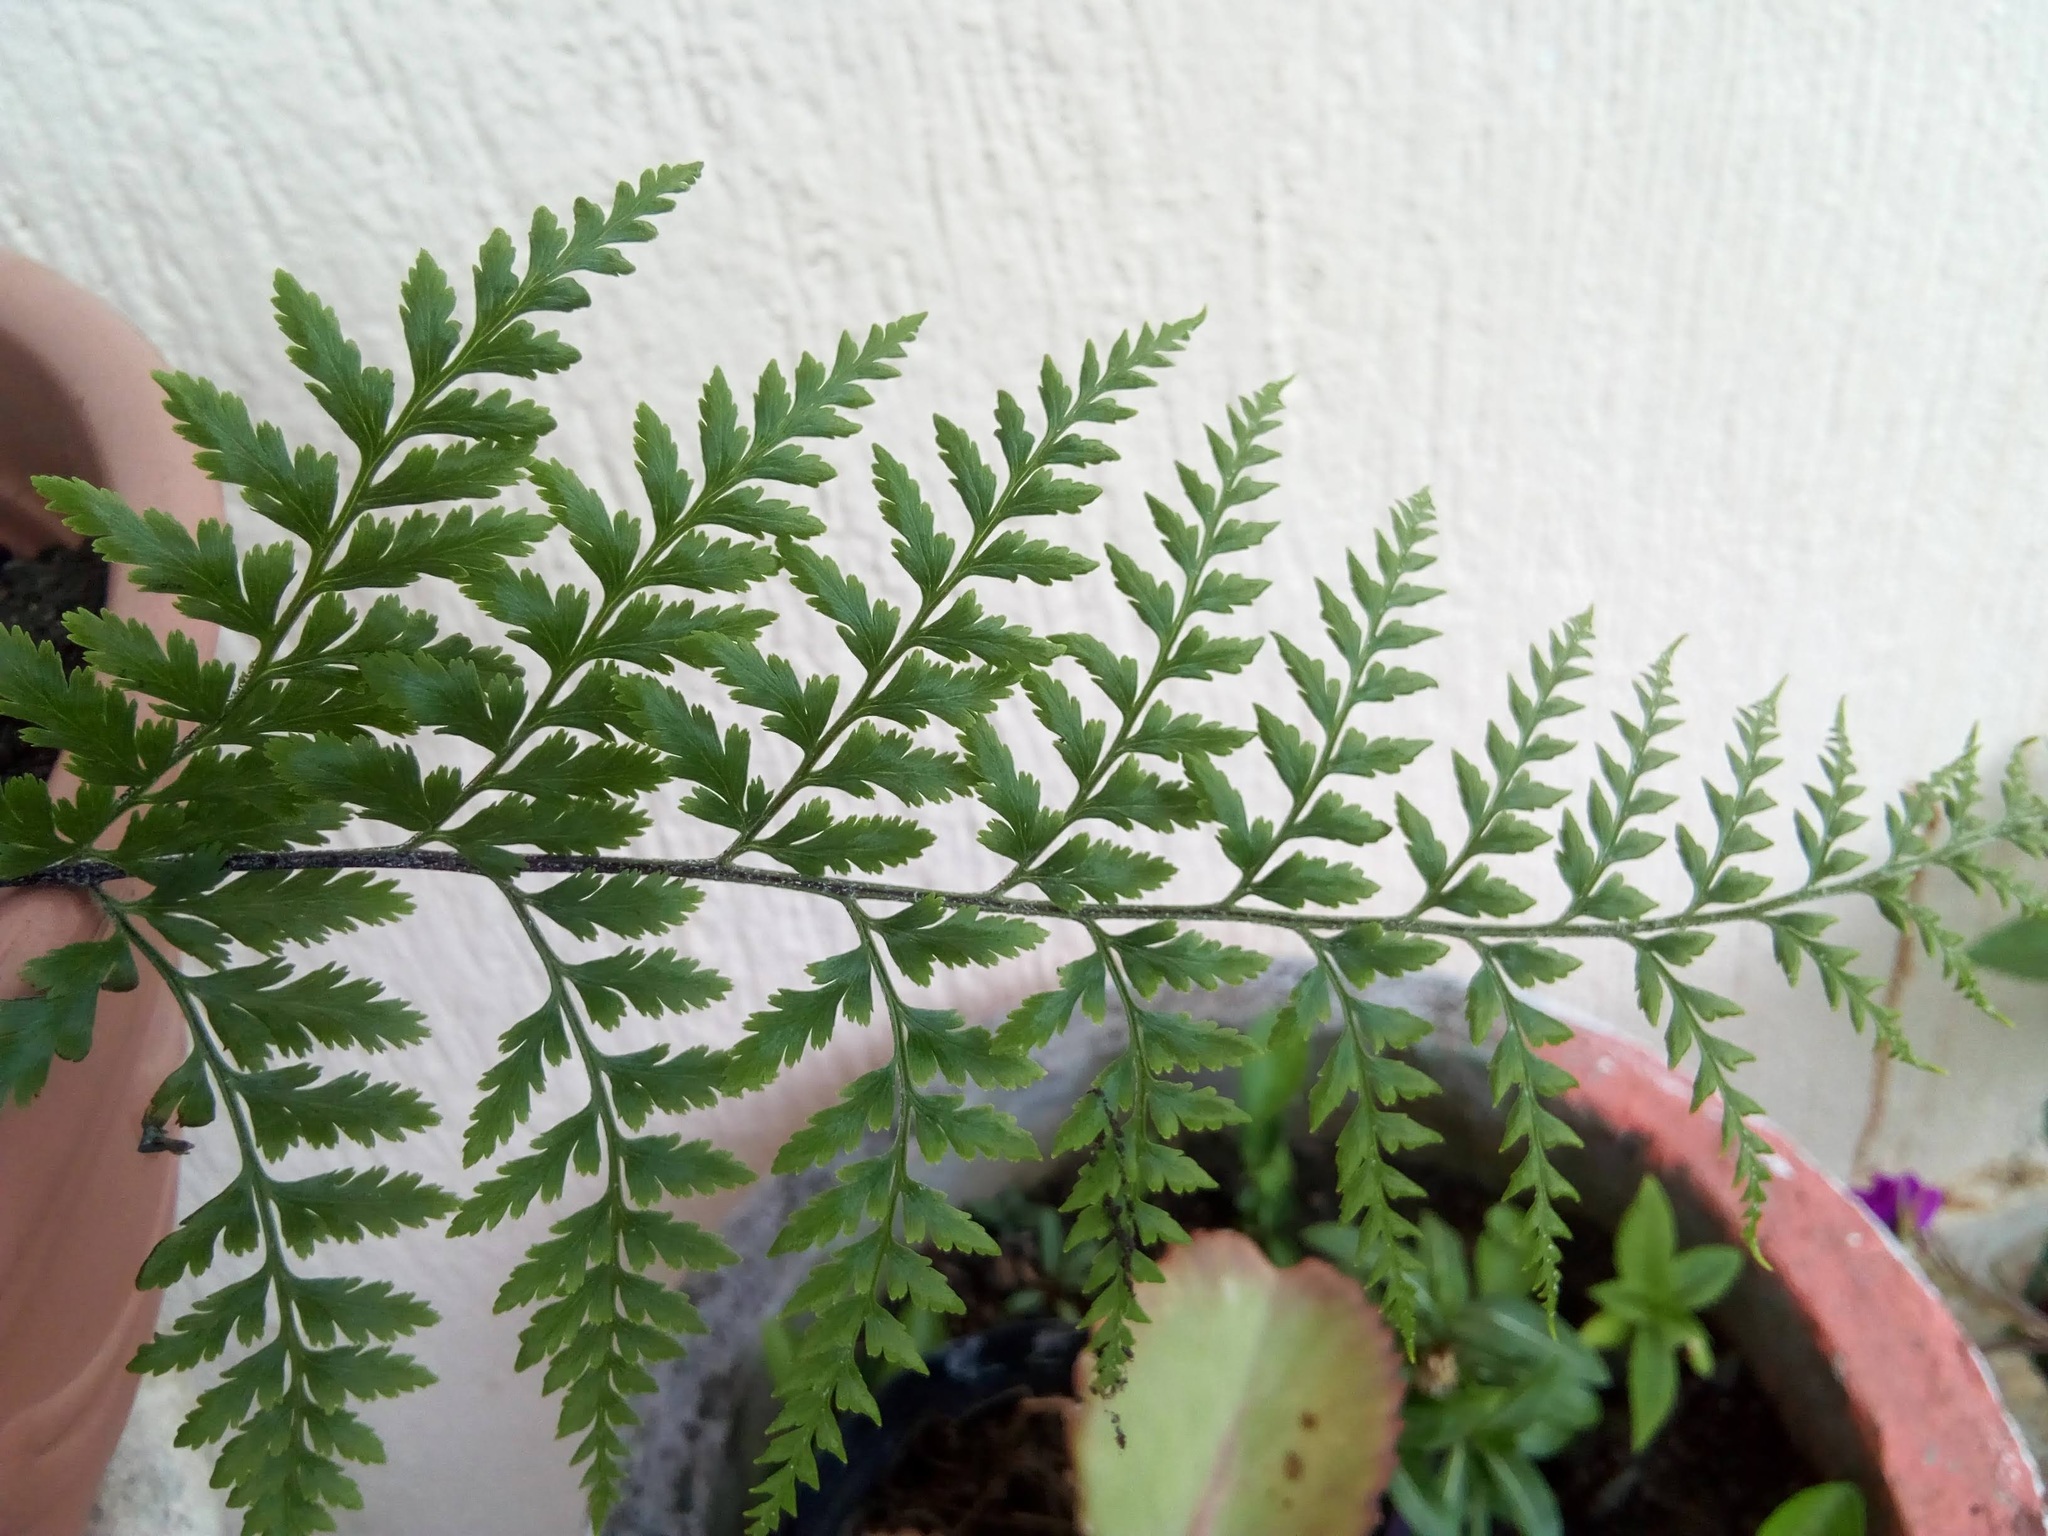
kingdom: Plantae
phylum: Tracheophyta
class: Polypodiopsida
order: Polypodiales
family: Pteridaceae
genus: Pityrogramma
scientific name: Pityrogramma calomelanos
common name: Dixie silverback fern
